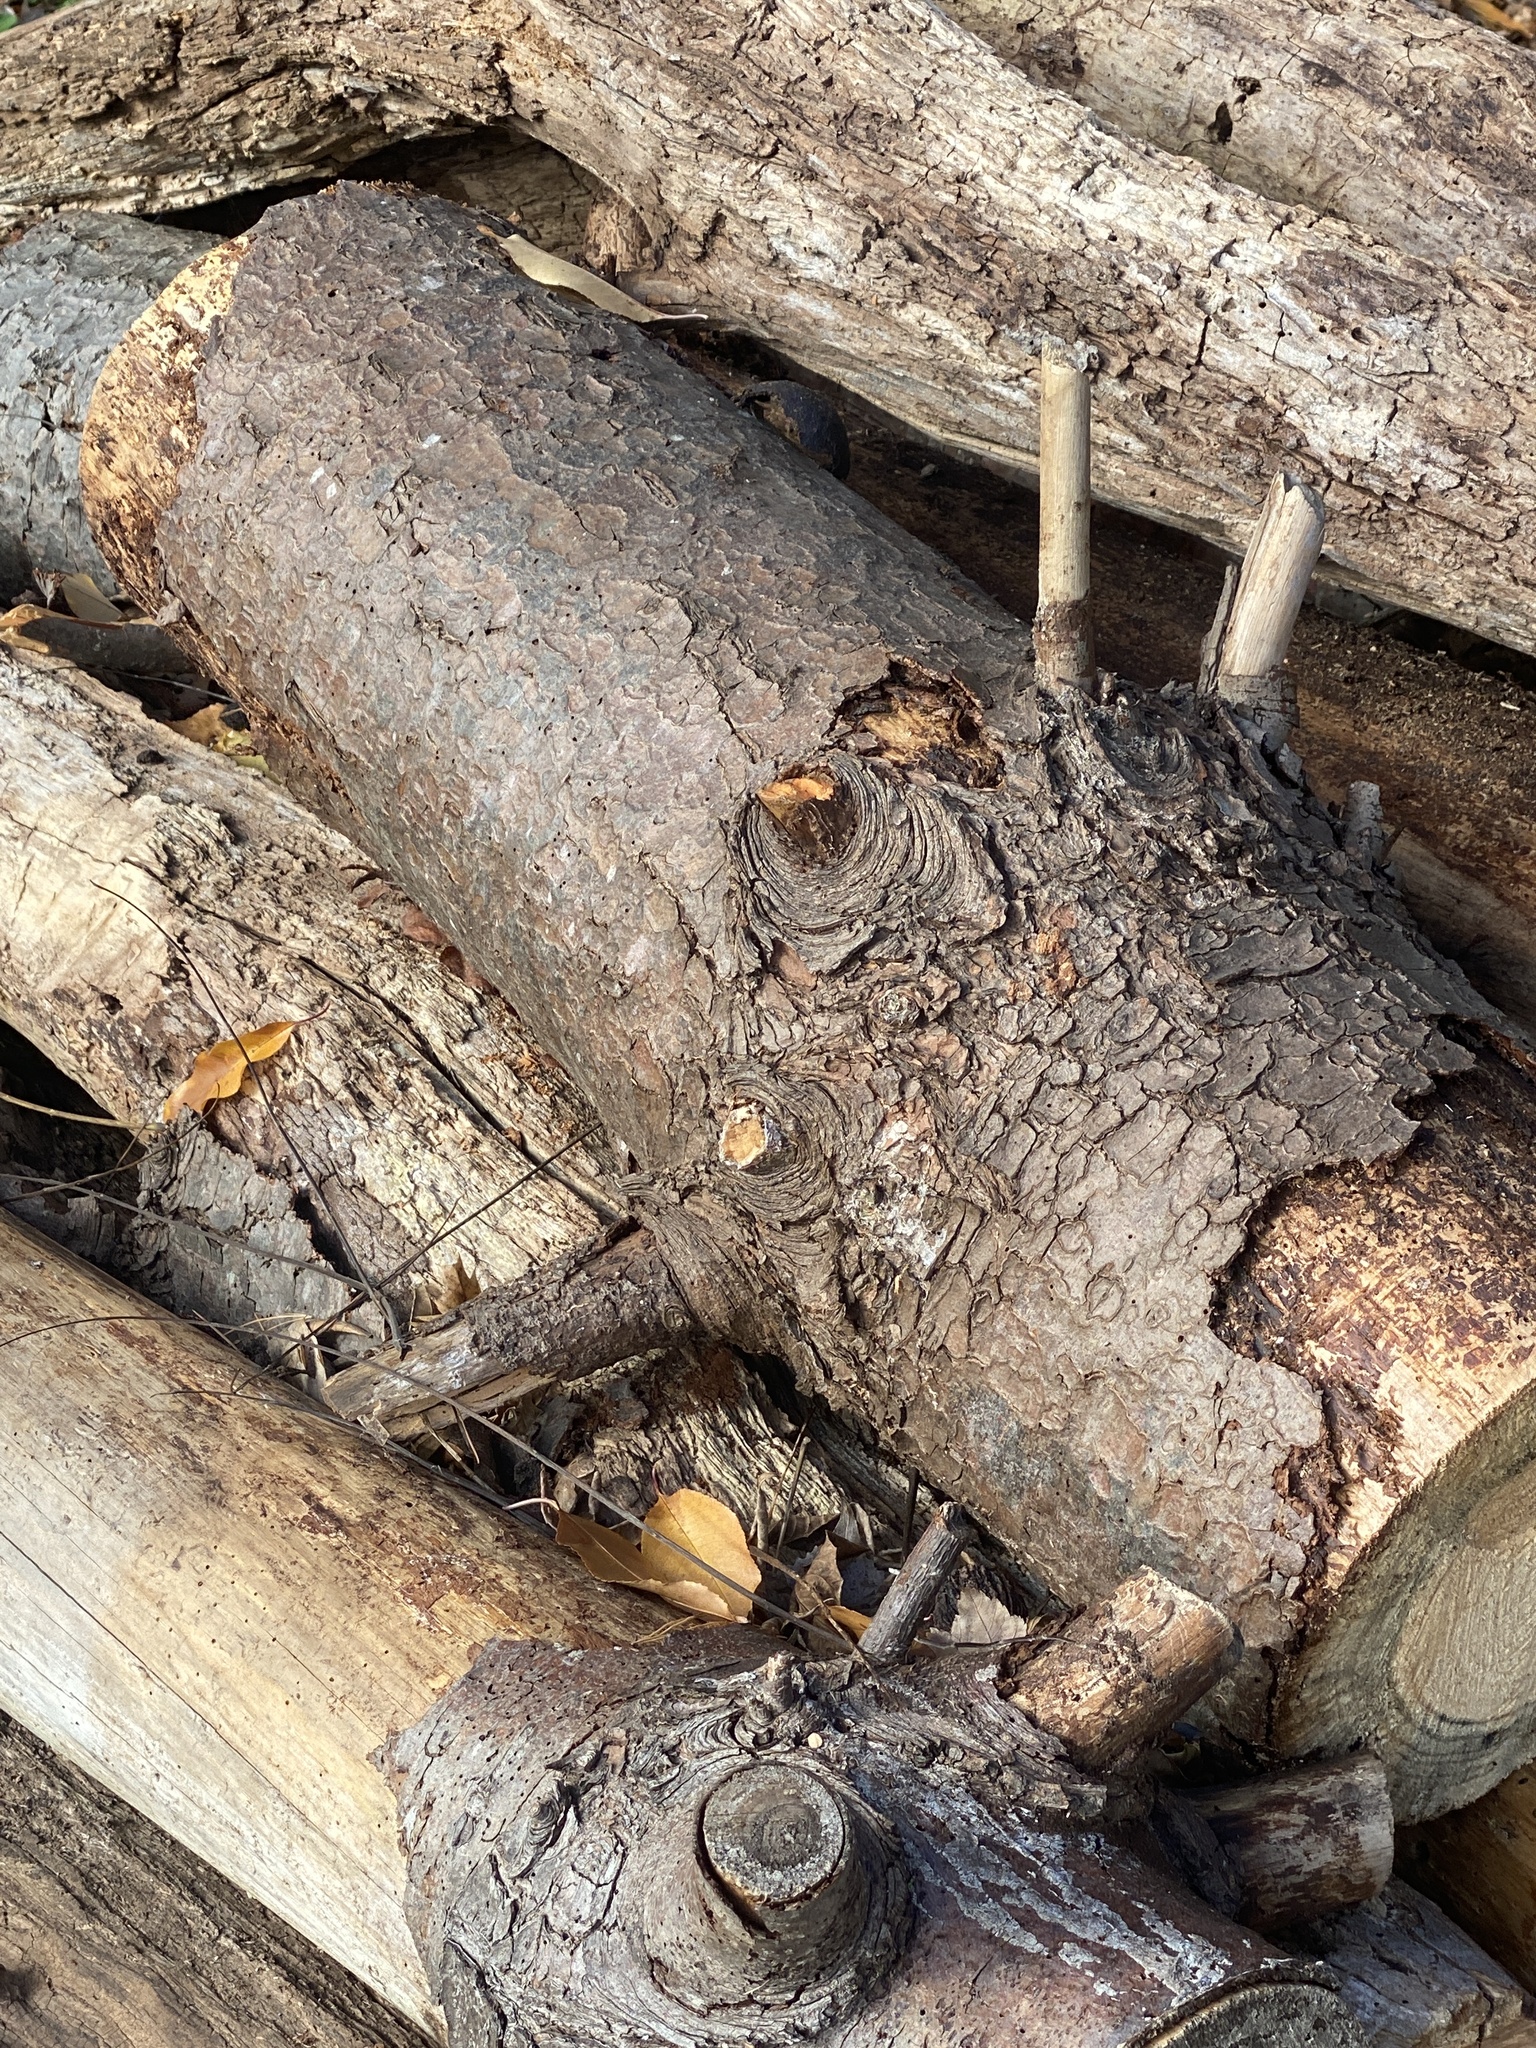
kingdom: Plantae
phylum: Tracheophyta
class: Pinopsida
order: Pinales
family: Pinaceae
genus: Pinus
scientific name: Pinus strobus
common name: Weymouth pine
